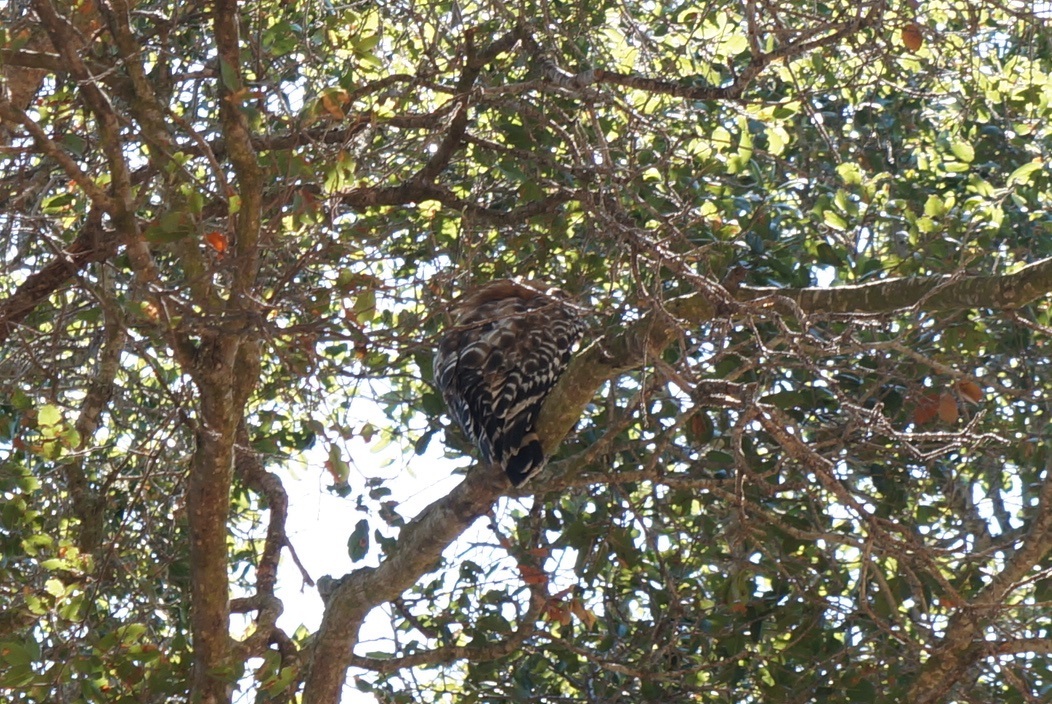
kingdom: Animalia
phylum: Chordata
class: Aves
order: Accipitriformes
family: Accipitridae
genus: Buteo
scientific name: Buteo lineatus
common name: Red-shouldered hawk
